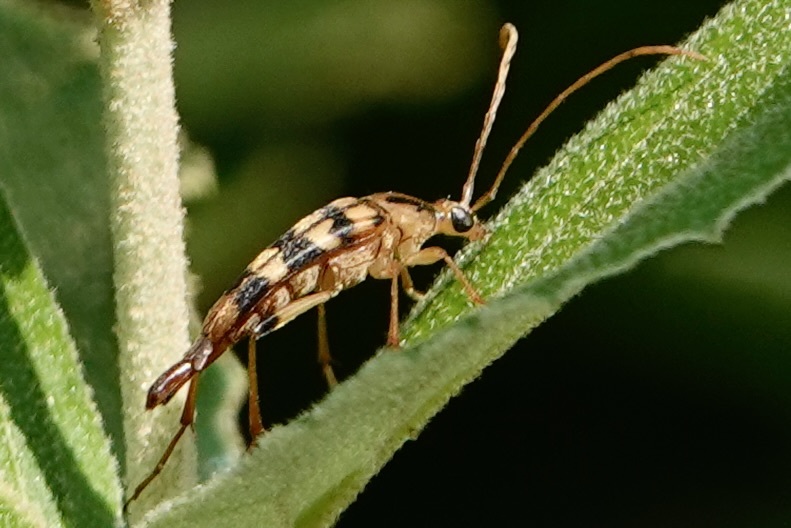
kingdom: Animalia
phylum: Arthropoda
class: Insecta
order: Coleoptera
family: Cerambycidae
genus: Strangalia
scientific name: Strangalia luteicornis
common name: Yellow-horned flower longhorn beetle
